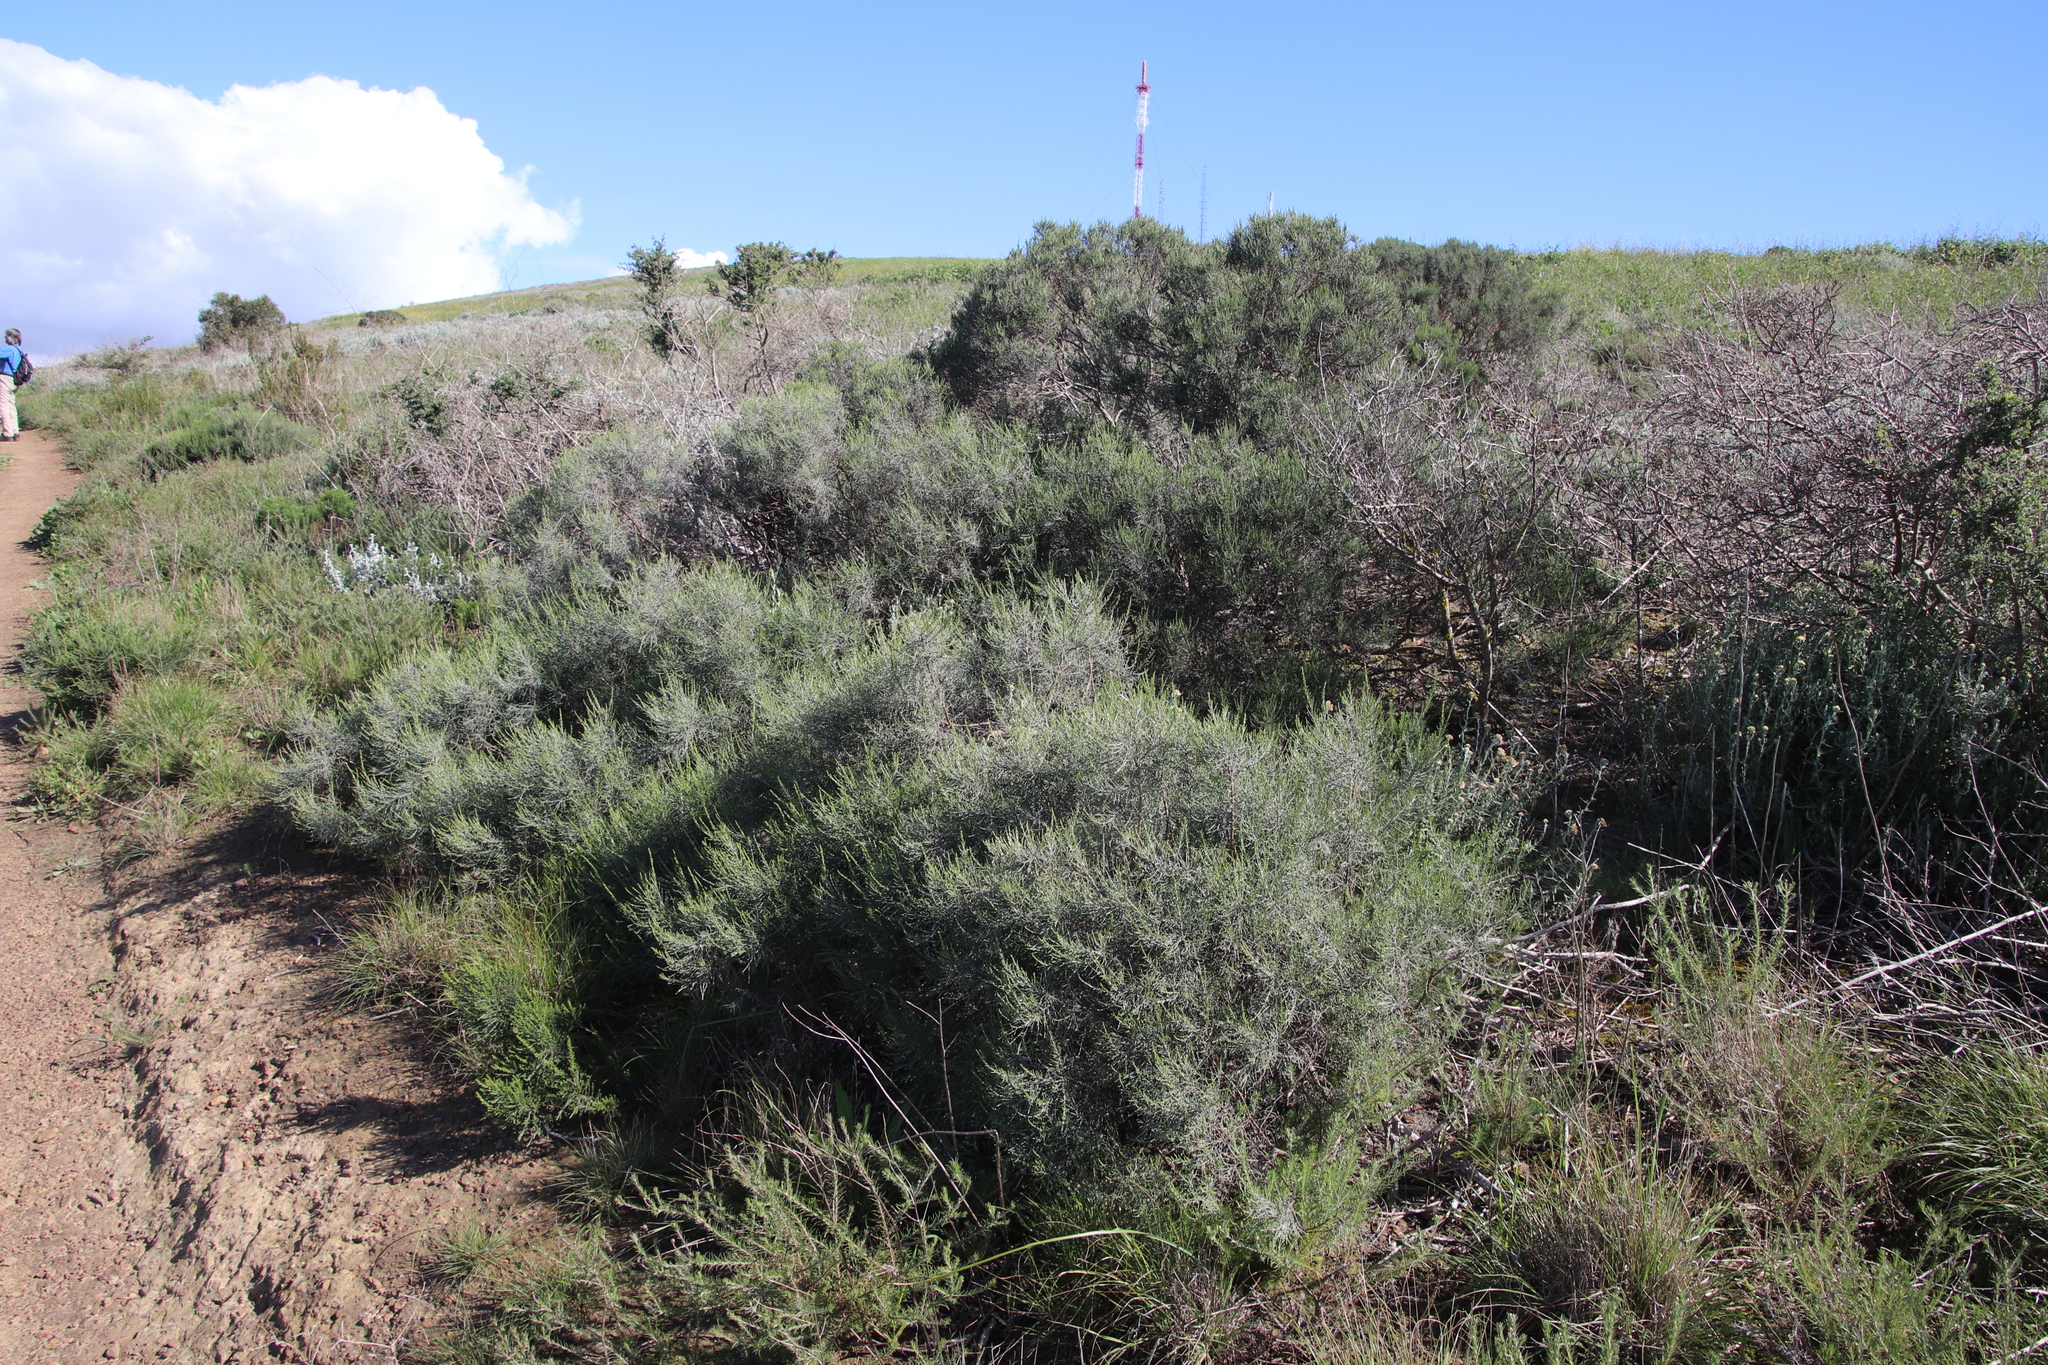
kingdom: Plantae
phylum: Tracheophyta
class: Magnoliopsida
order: Asterales
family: Asteraceae
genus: Dicerothamnus
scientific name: Dicerothamnus rhinocerotis
